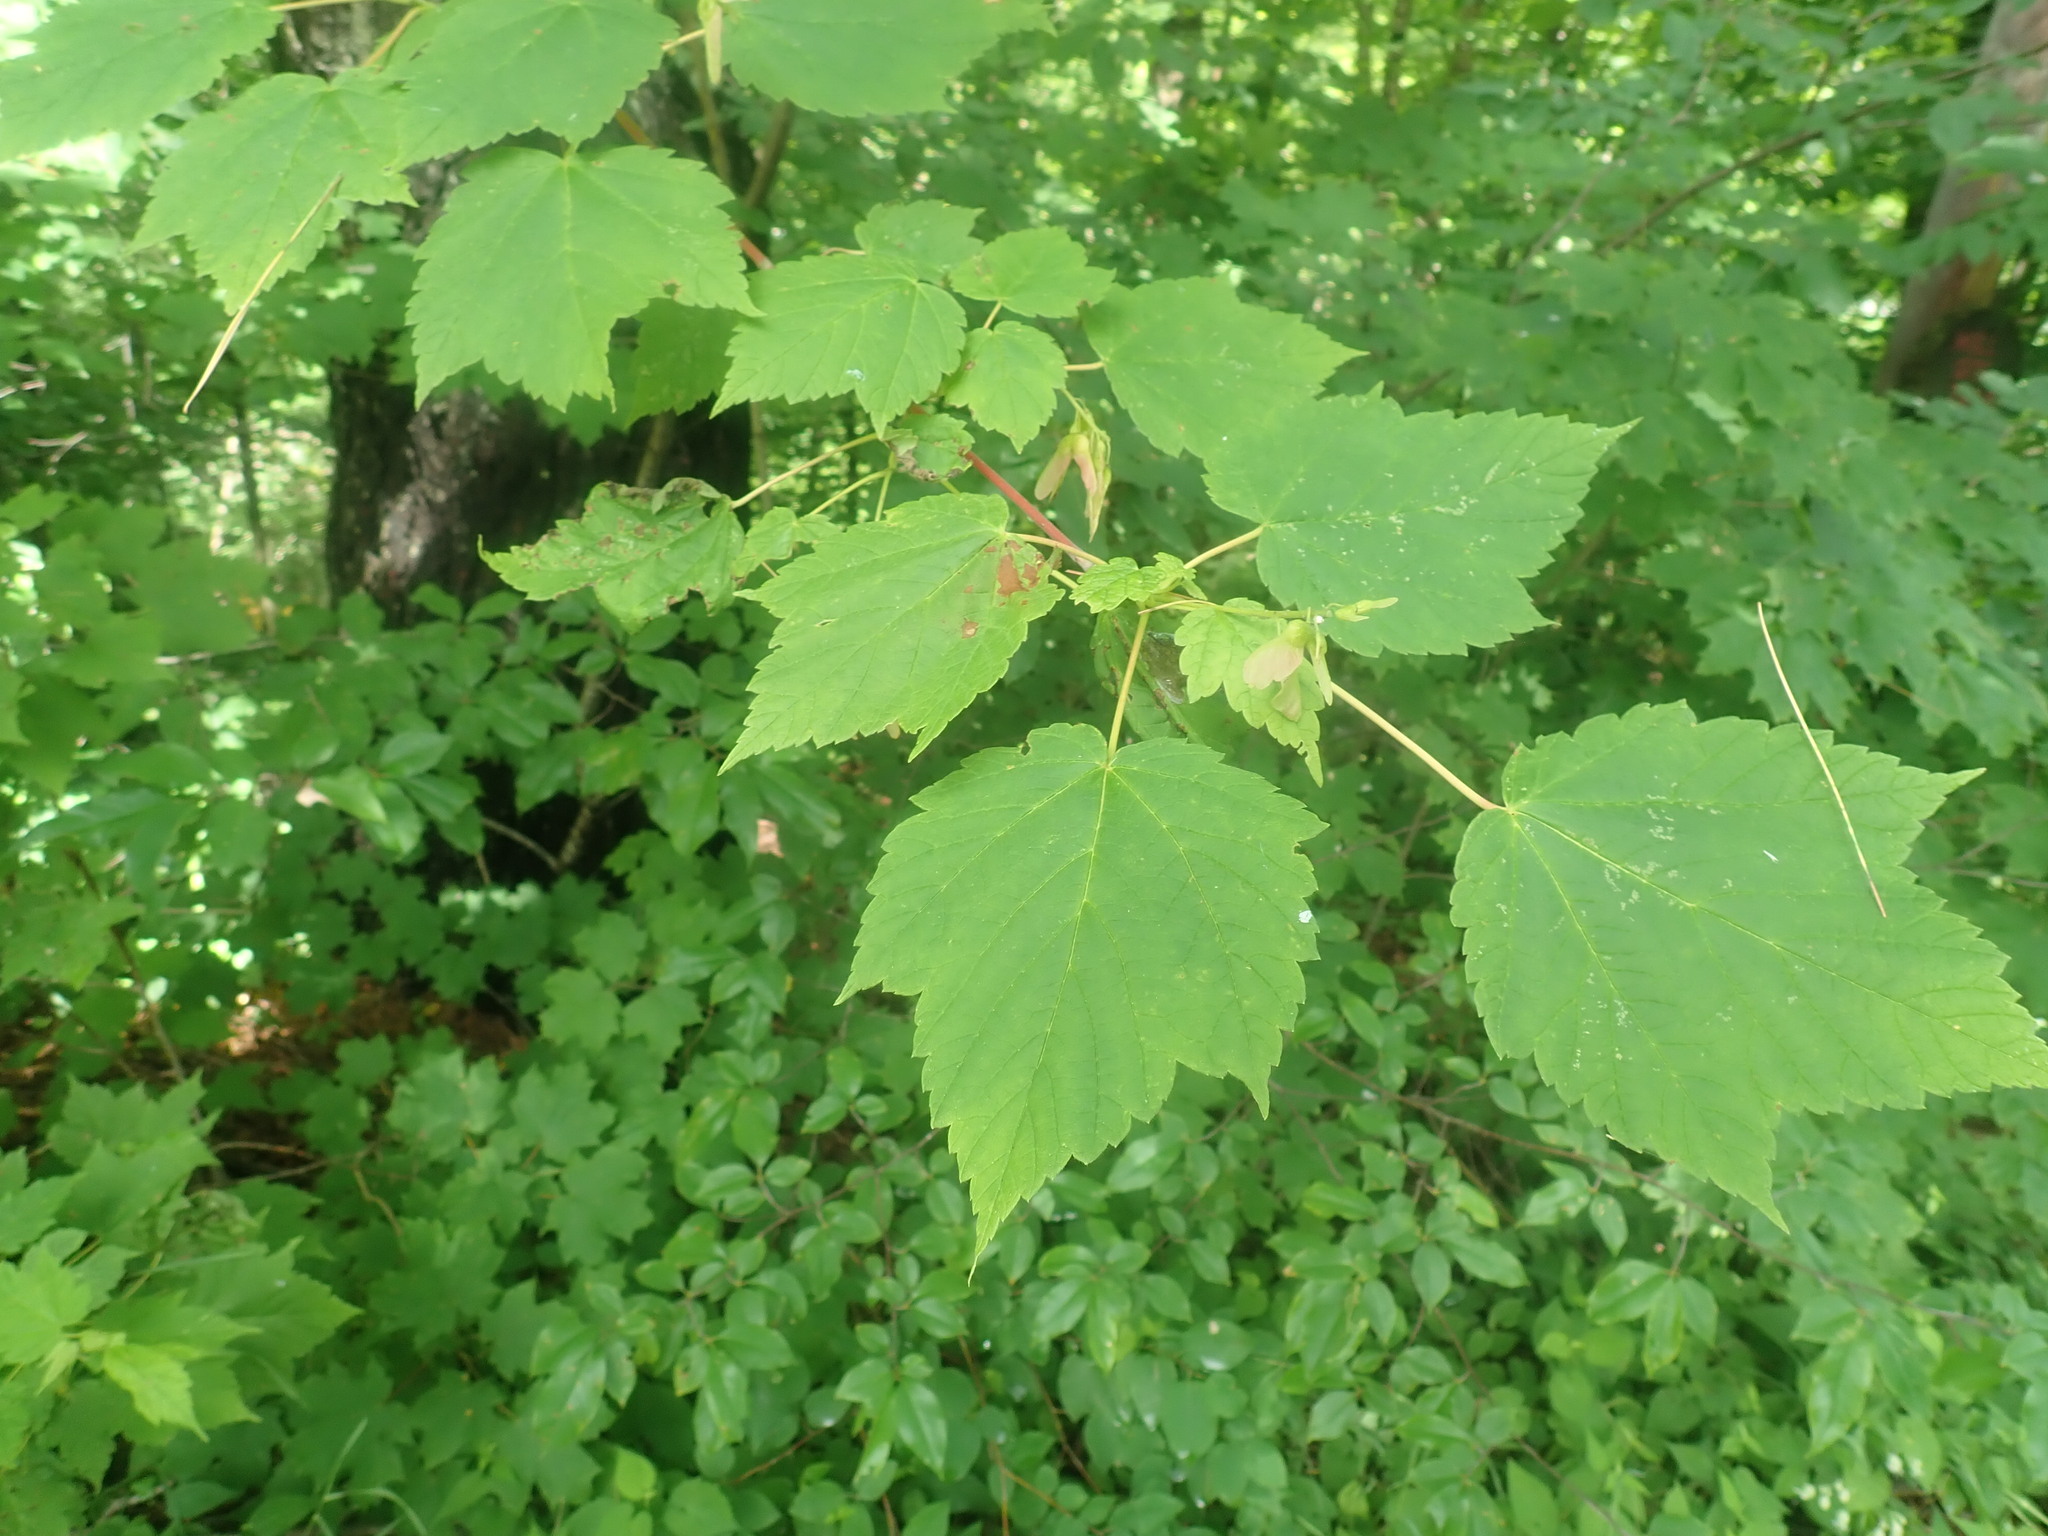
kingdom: Plantae
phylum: Tracheophyta
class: Magnoliopsida
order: Sapindales
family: Sapindaceae
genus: Acer
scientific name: Acer spicatum
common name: Mountain maple
